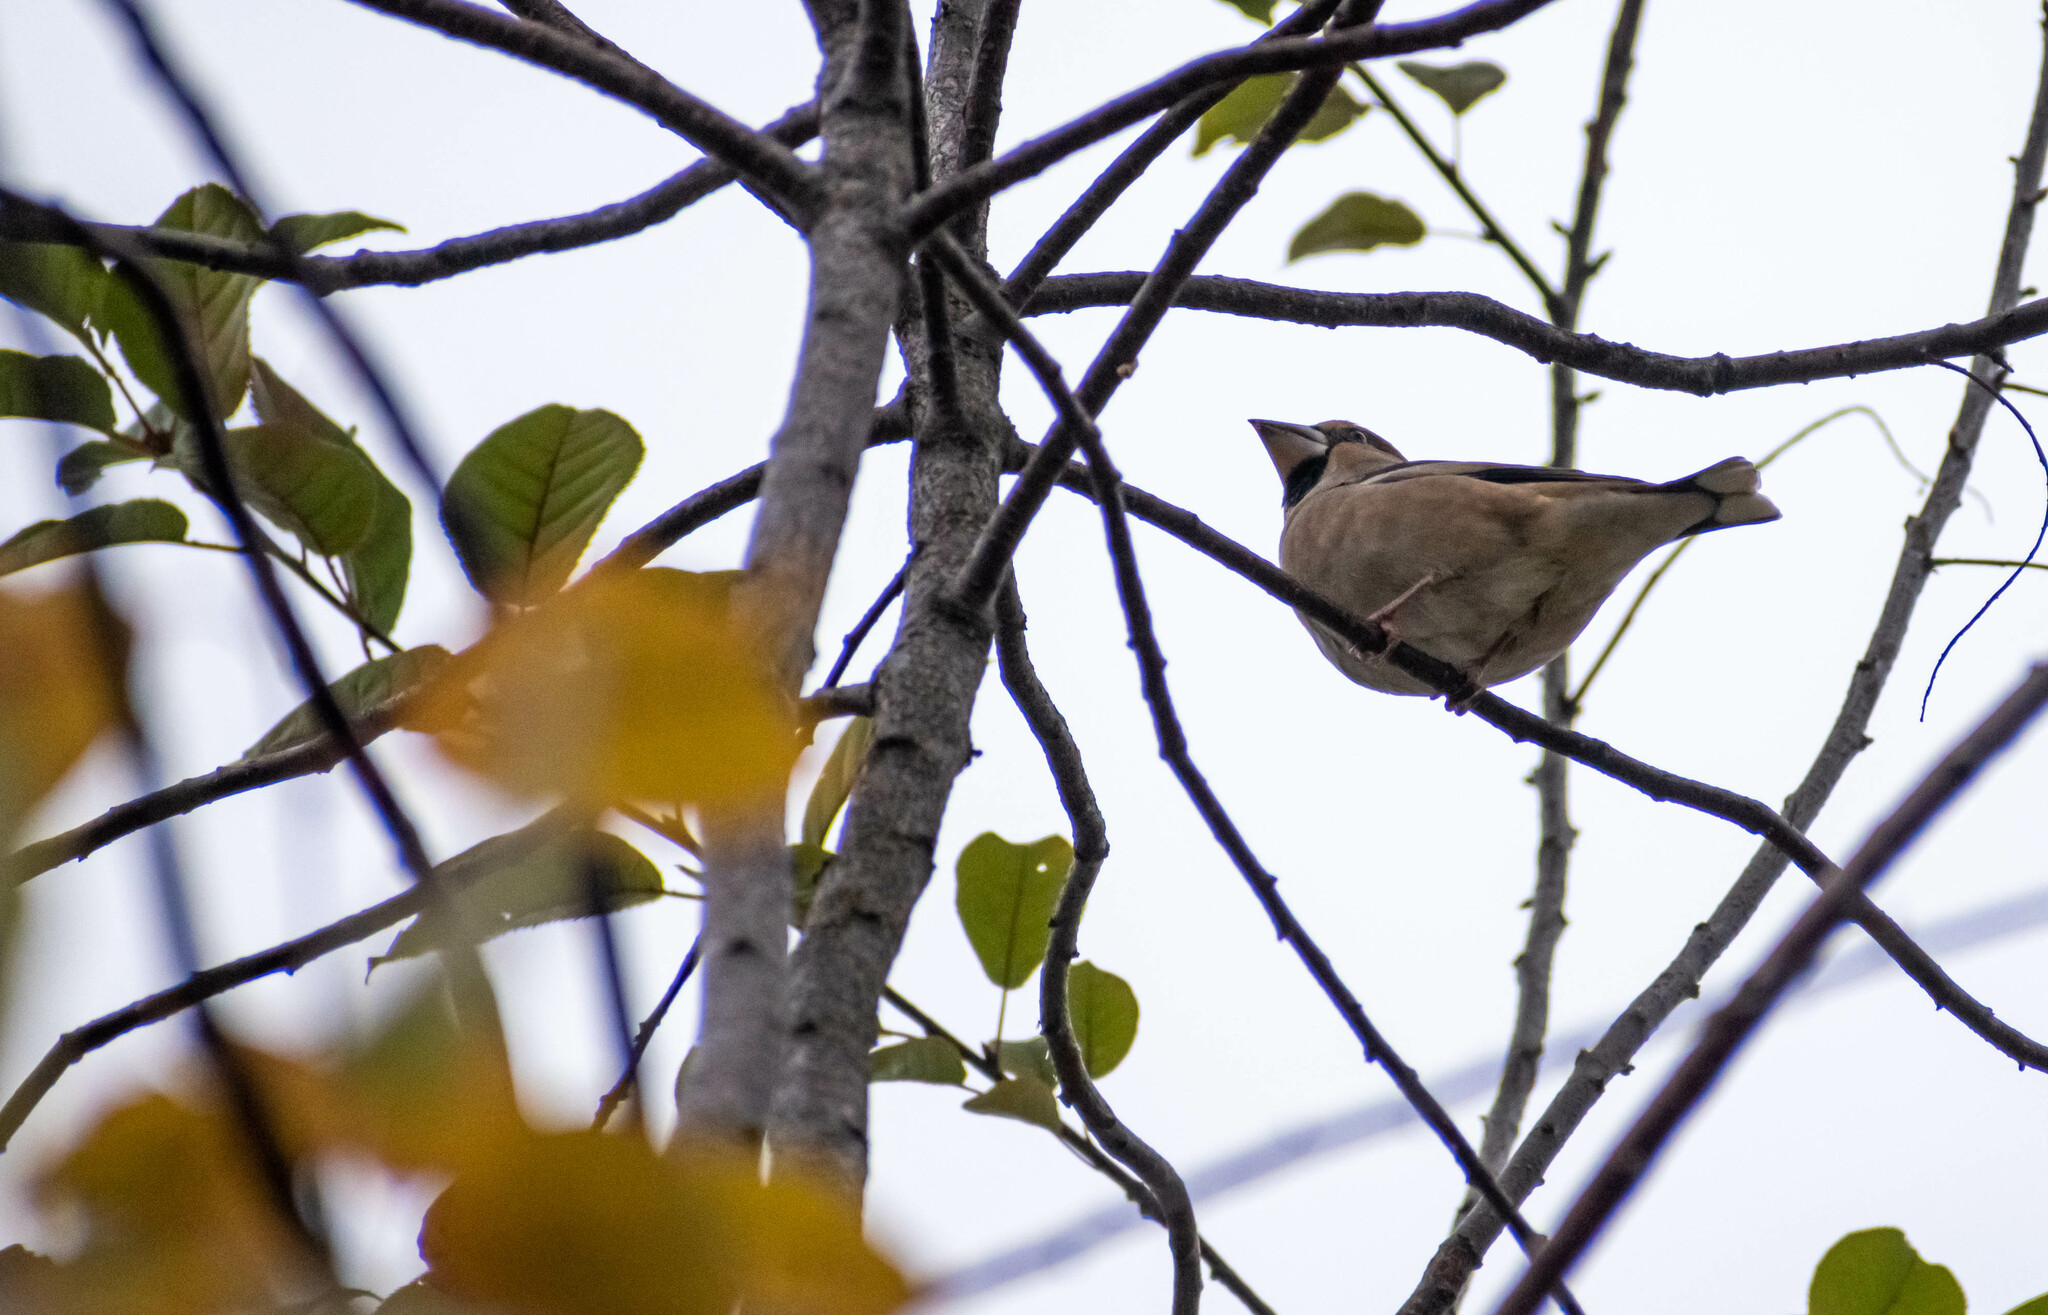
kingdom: Animalia
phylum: Chordata
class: Aves
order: Passeriformes
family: Fringillidae
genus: Coccothraustes
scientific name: Coccothraustes coccothraustes
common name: Hawfinch
